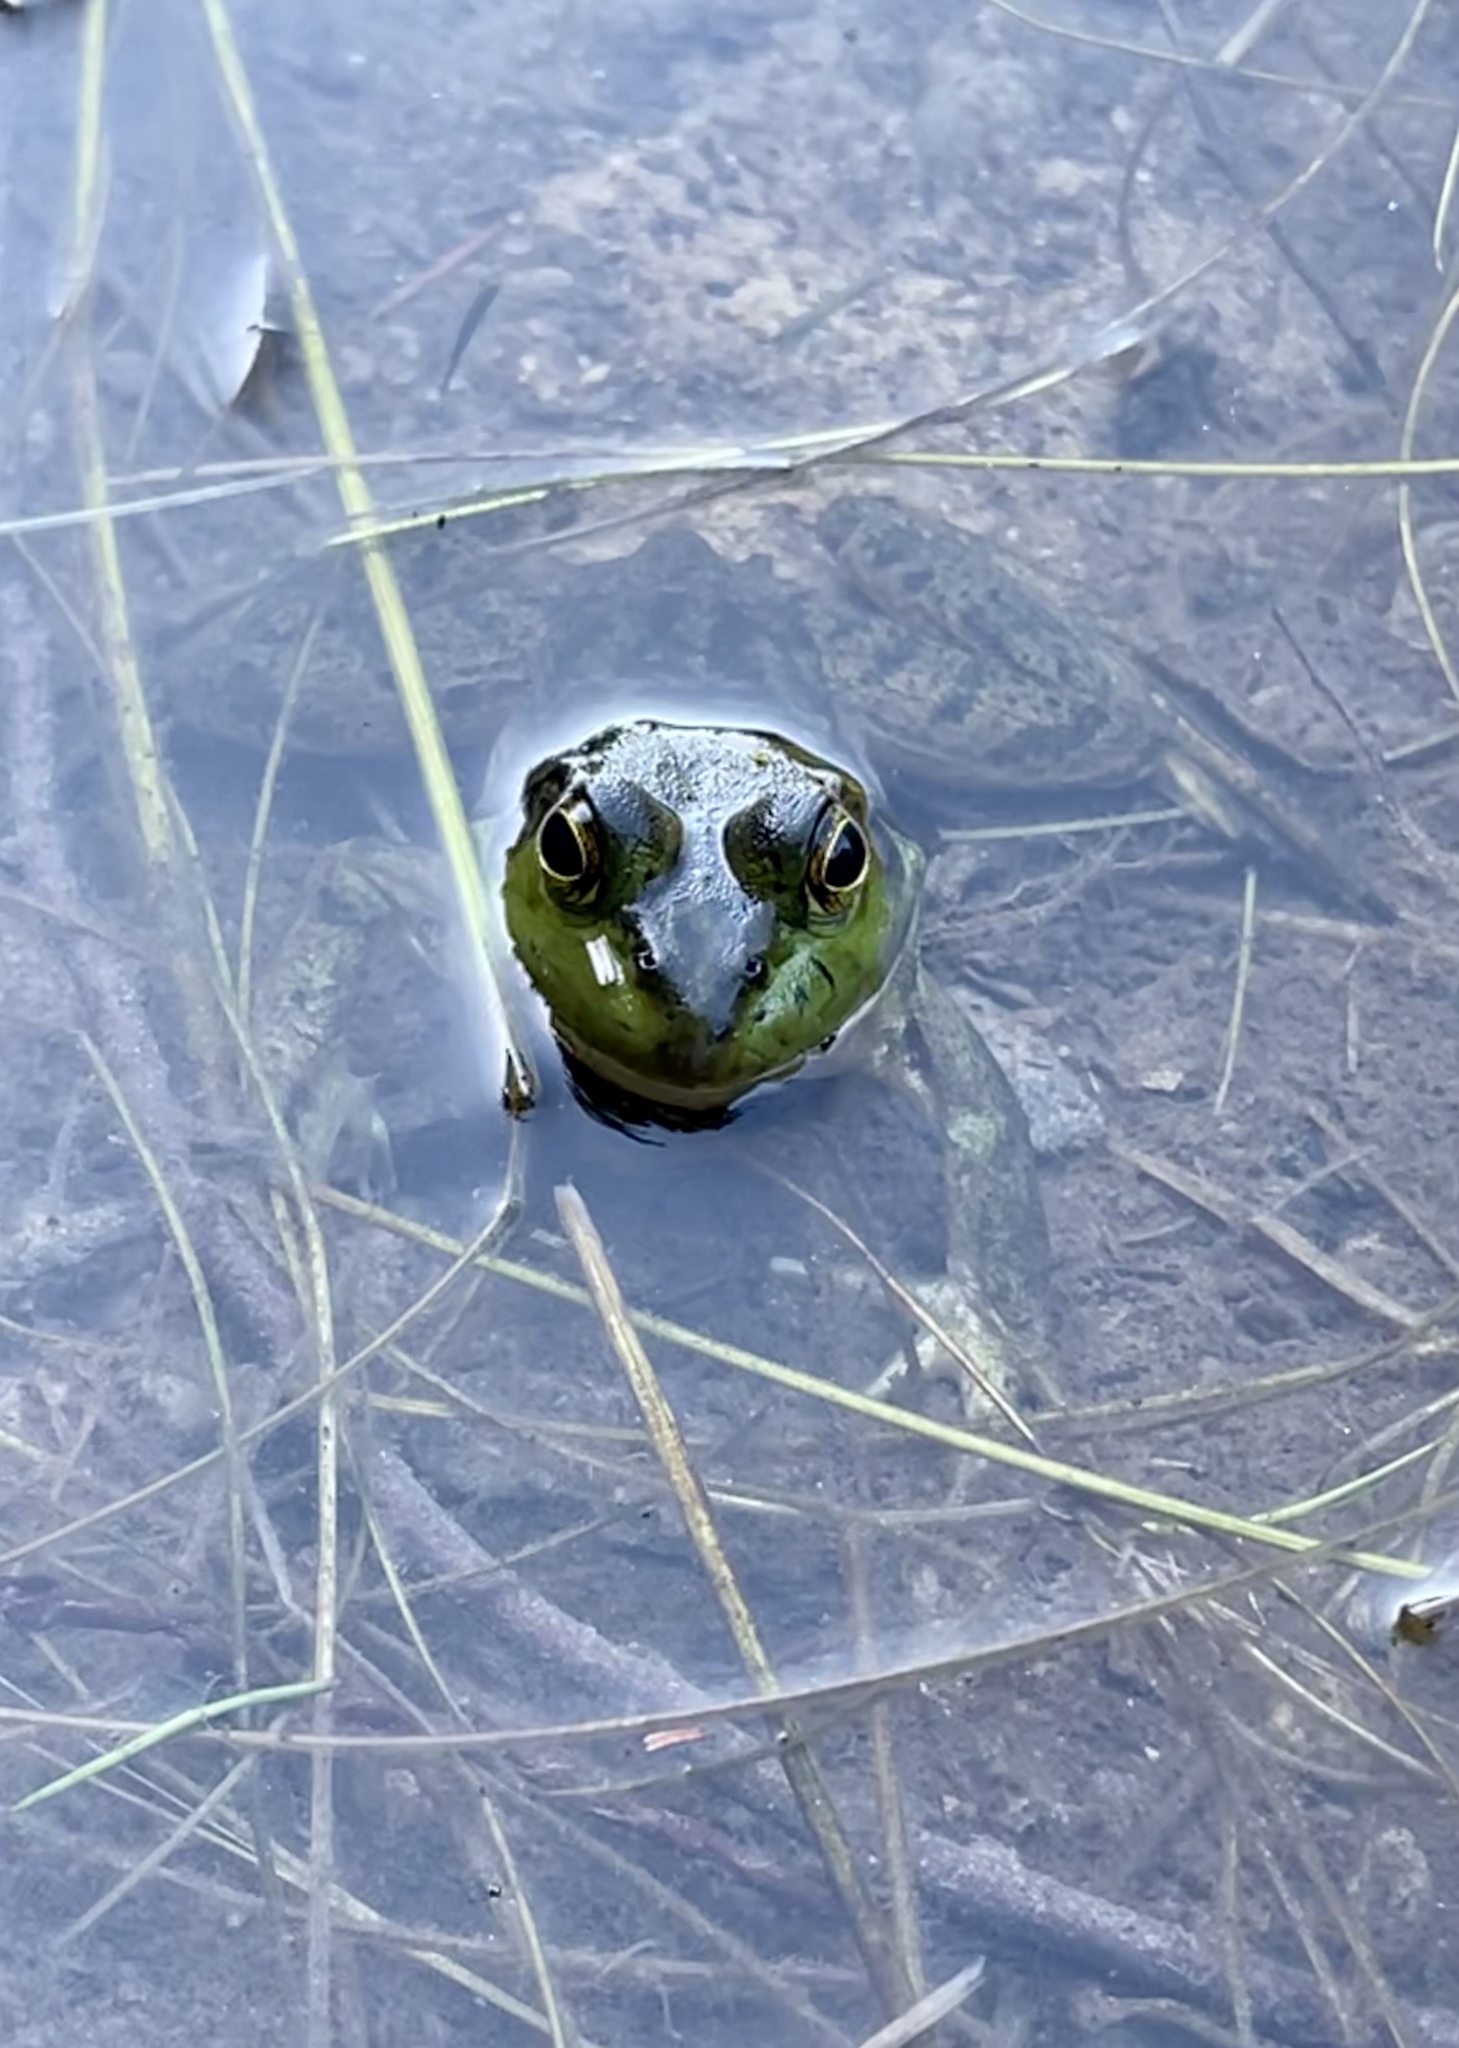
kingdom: Animalia
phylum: Chordata
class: Amphibia
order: Anura
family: Ranidae
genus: Lithobates
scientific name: Lithobates catesbeianus
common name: American bullfrog
